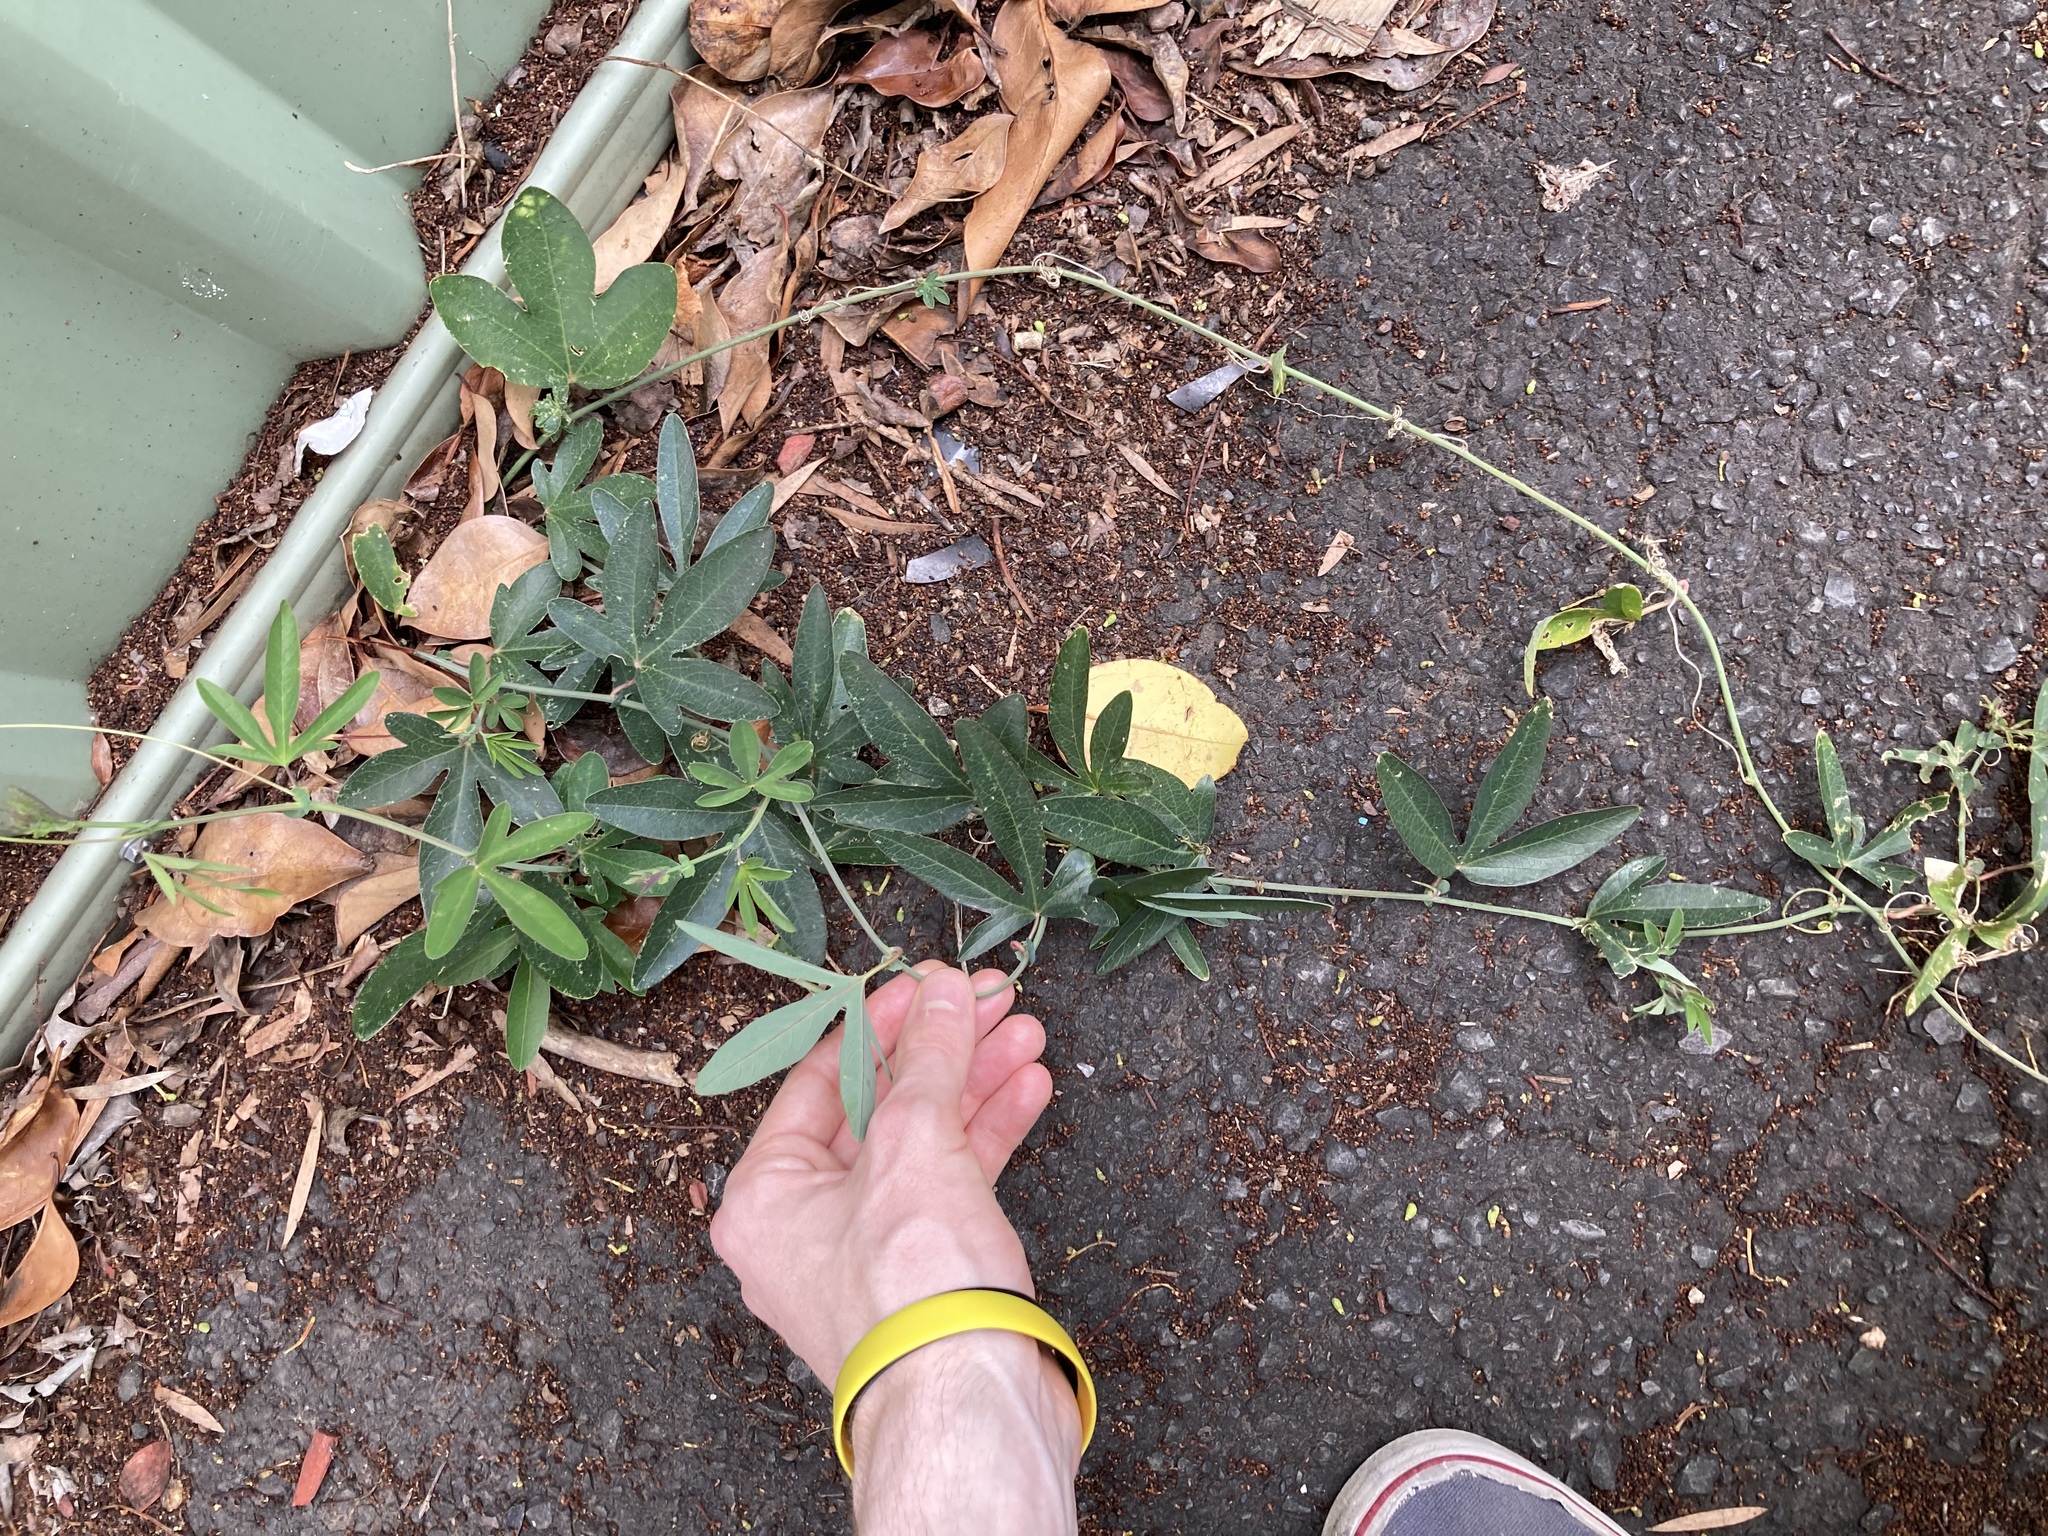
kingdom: Plantae
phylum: Tracheophyta
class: Magnoliopsida
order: Malpighiales
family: Passifloraceae
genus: Passiflora
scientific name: Passiflora caerulea
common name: Blue passionflower
